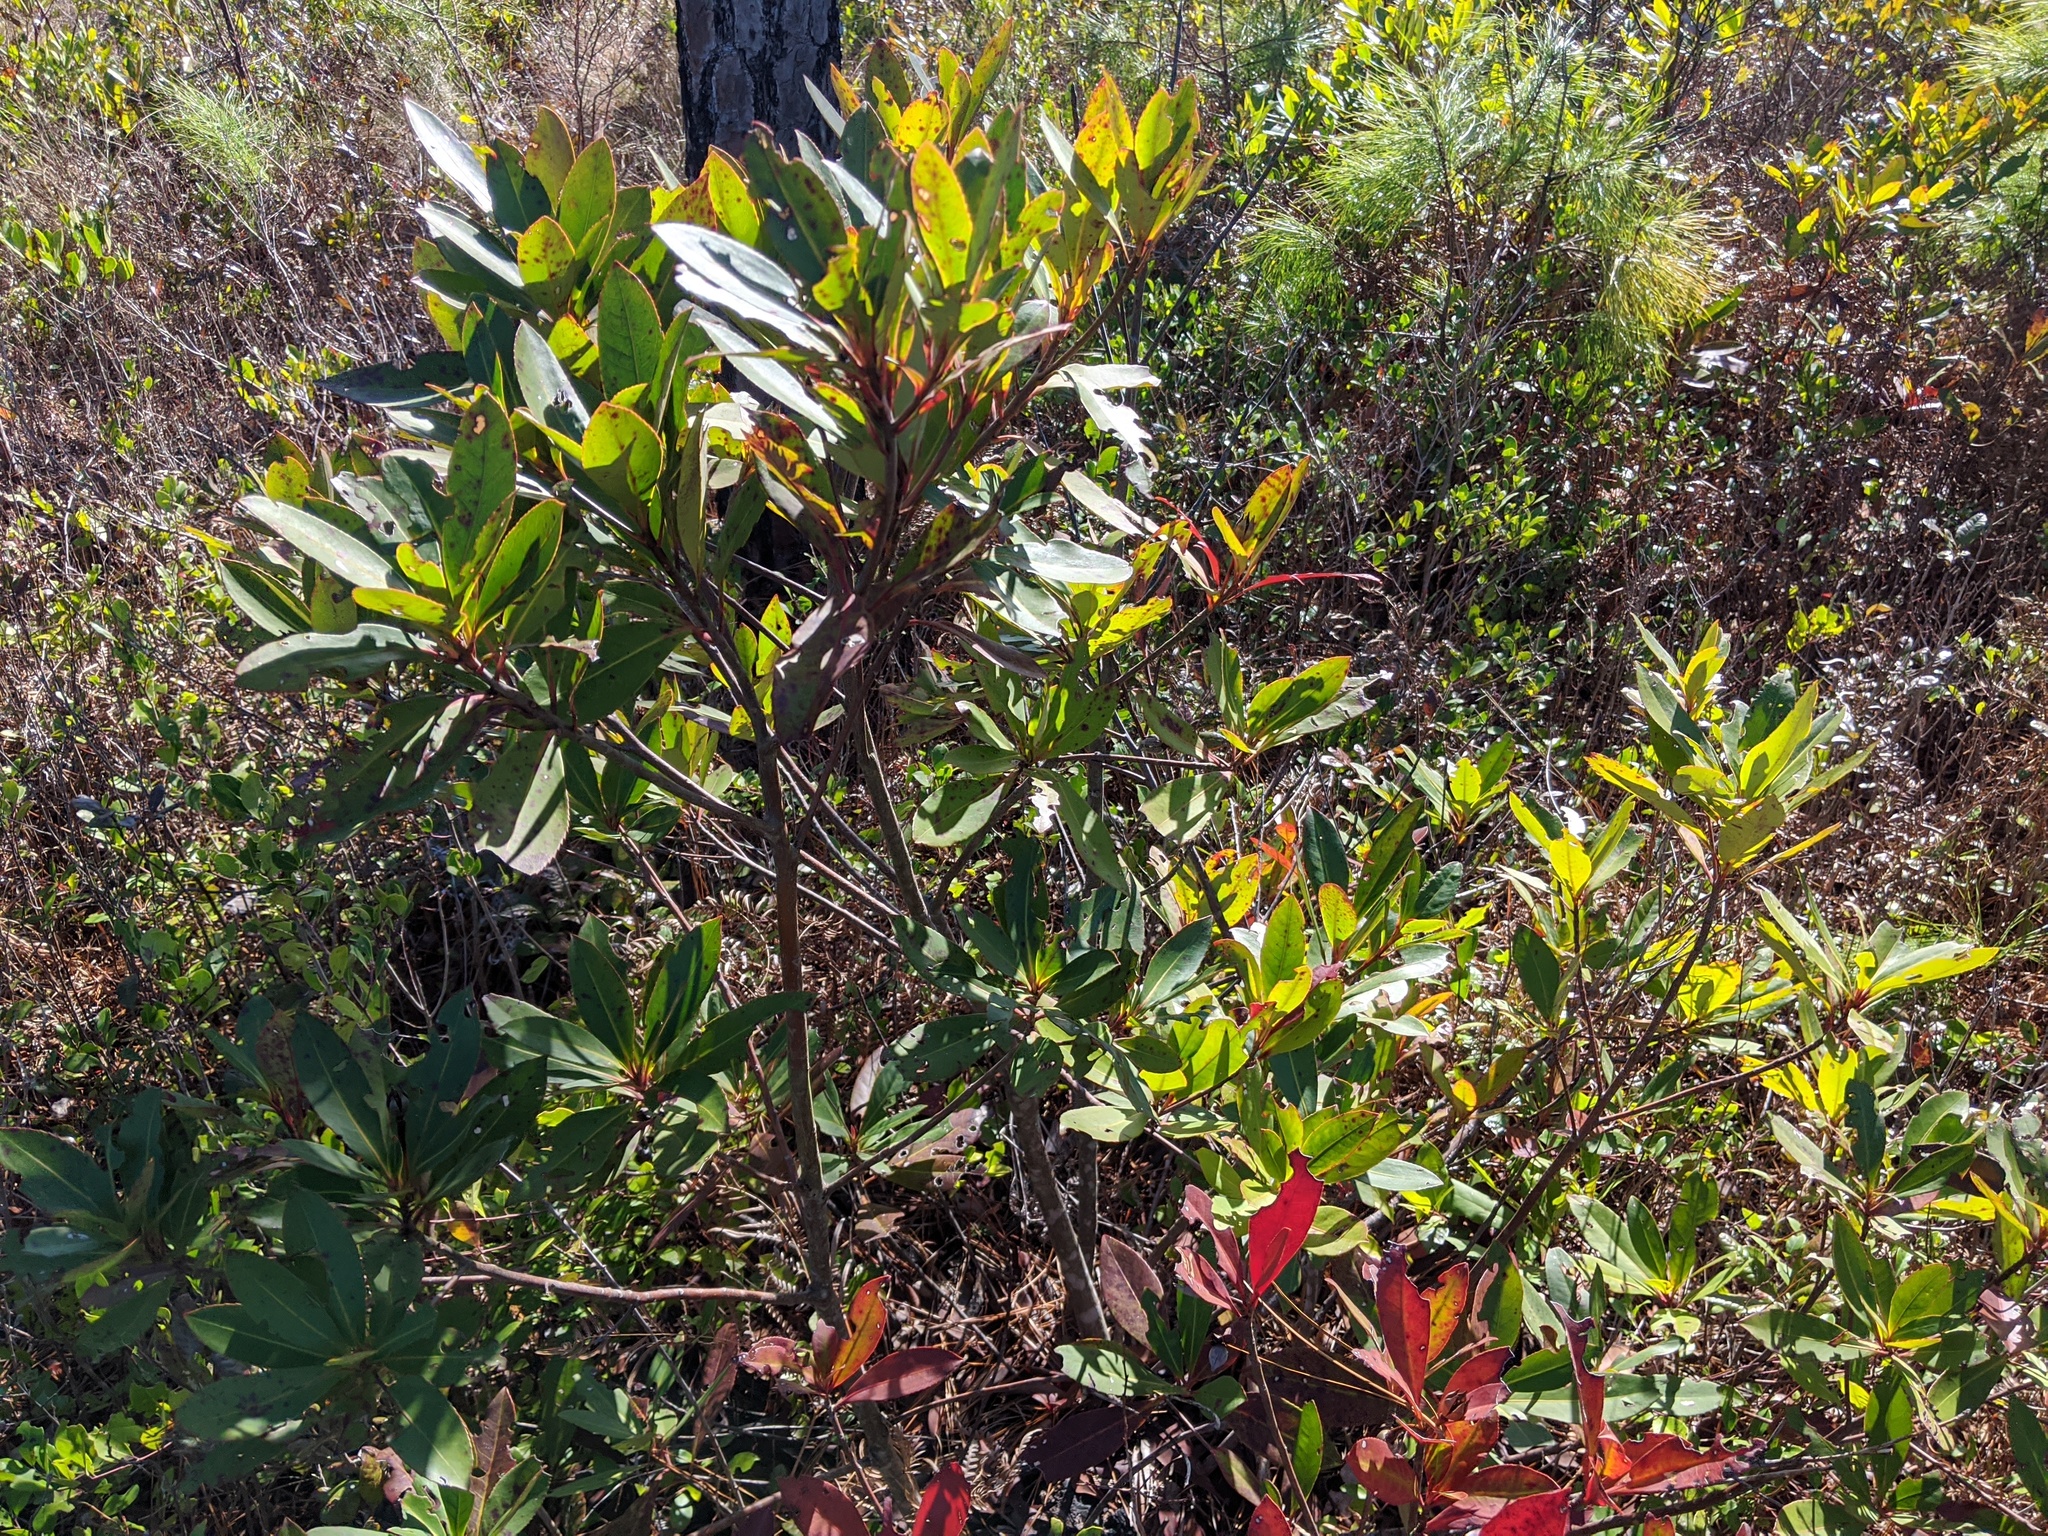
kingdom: Plantae
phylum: Tracheophyta
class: Magnoliopsida
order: Ericales
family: Theaceae
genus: Gordonia
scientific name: Gordonia lasianthus
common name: Loblolly bay
